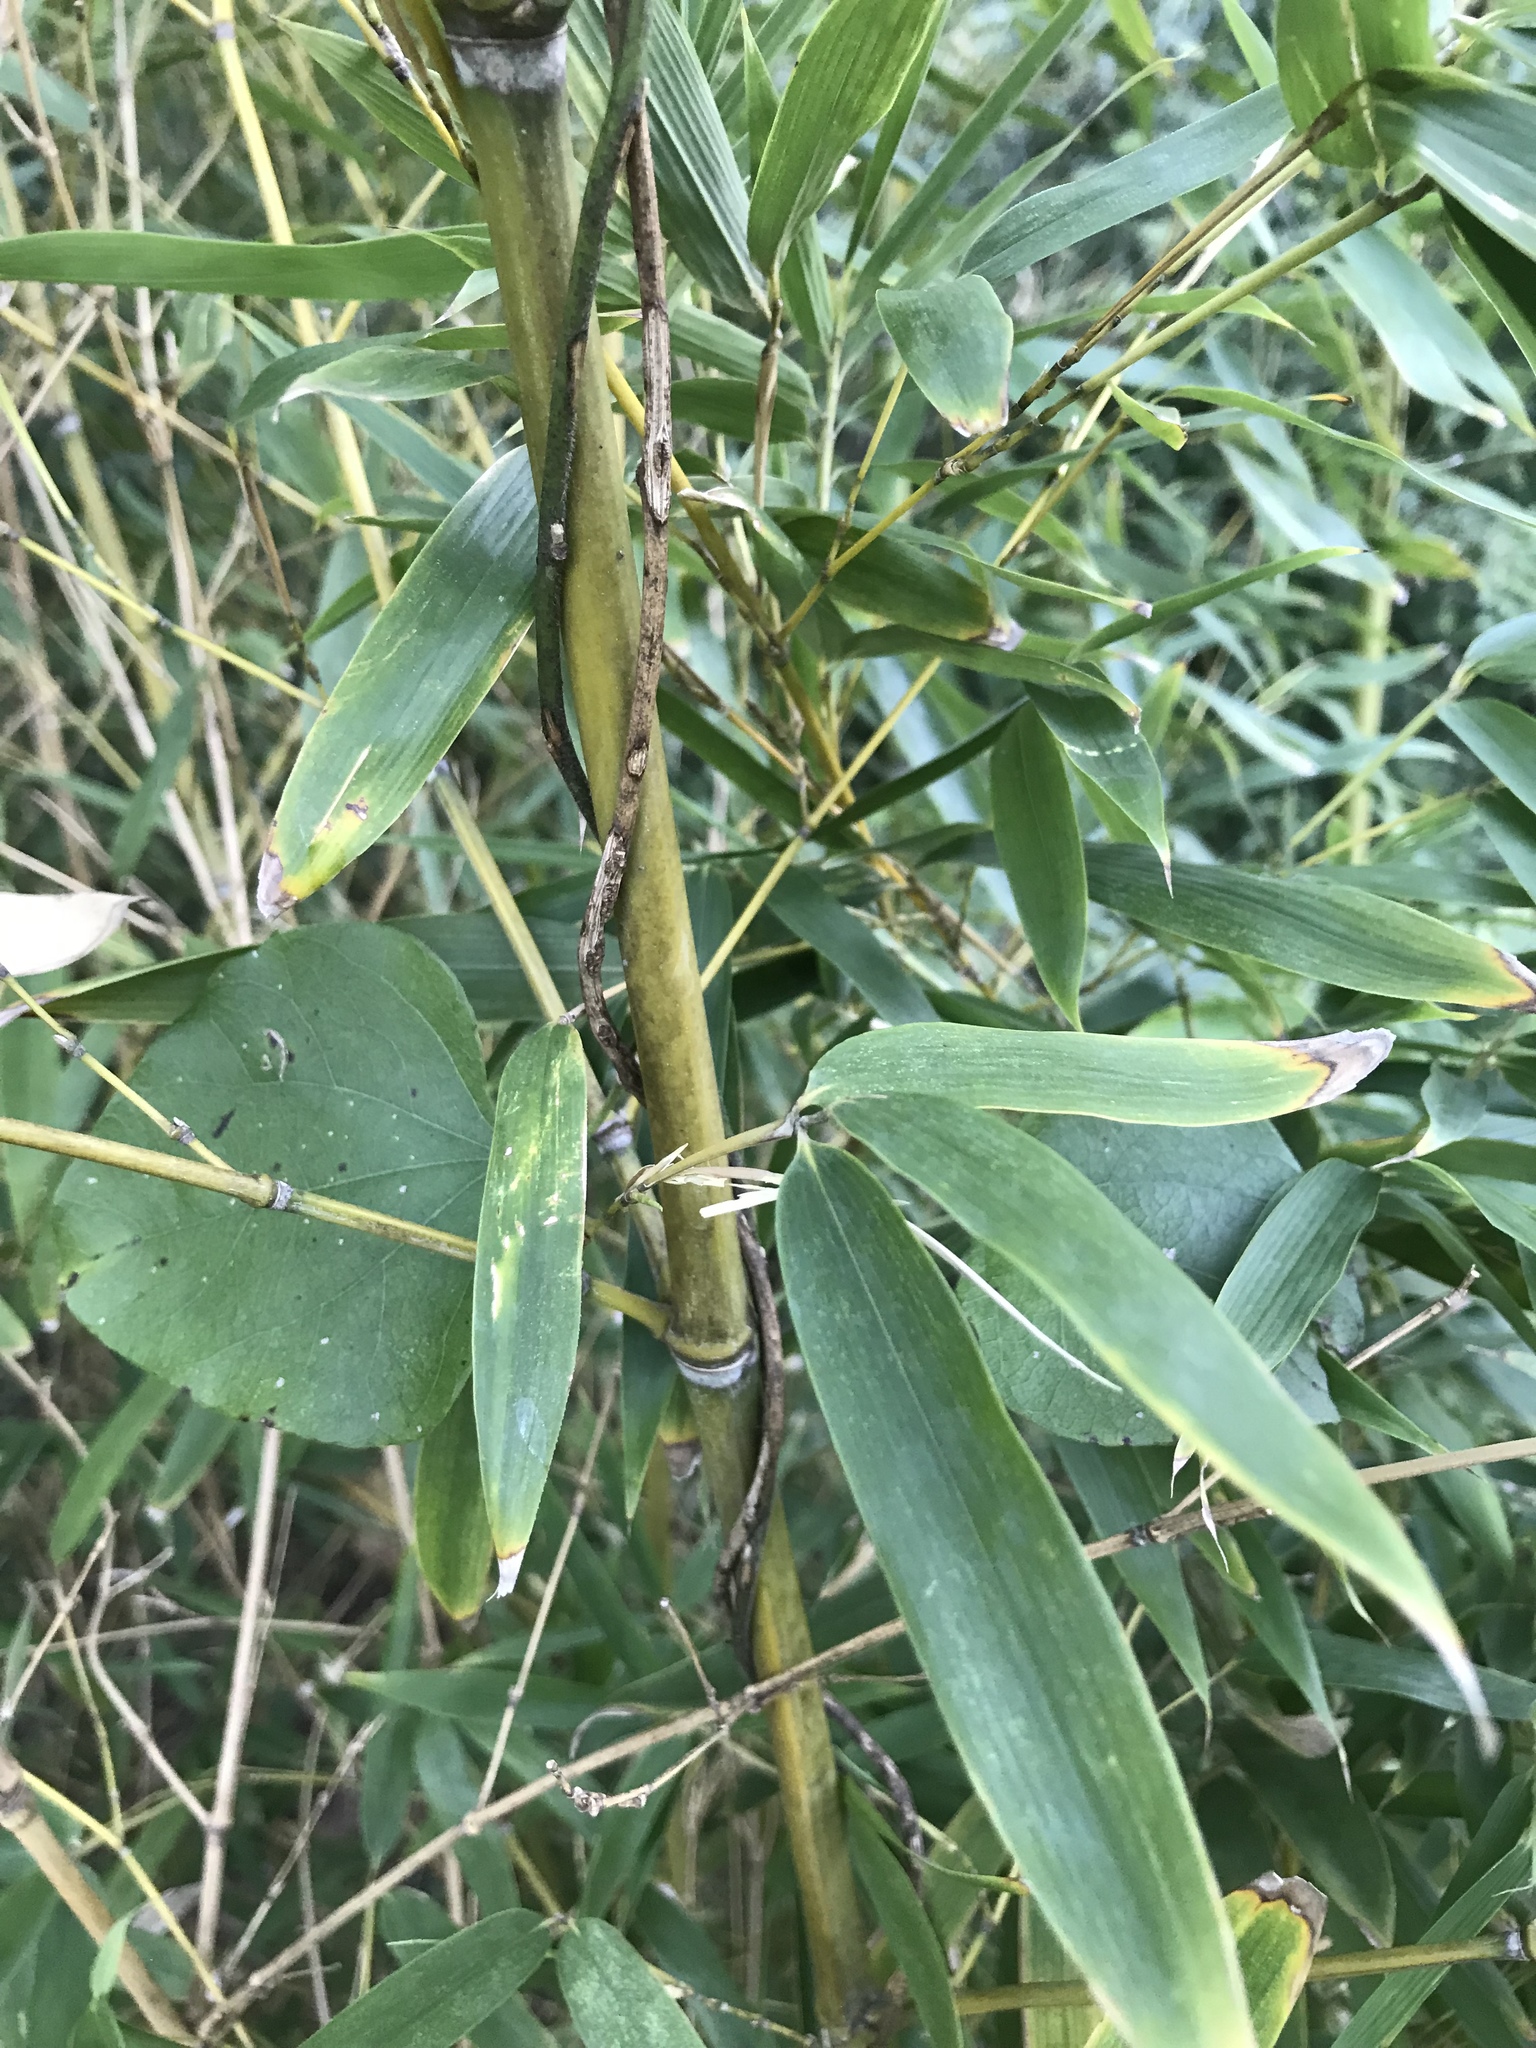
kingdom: Plantae
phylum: Tracheophyta
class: Liliopsida
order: Poales
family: Poaceae
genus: Phyllostachys
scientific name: Phyllostachys aurea
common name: Golden bamboo
